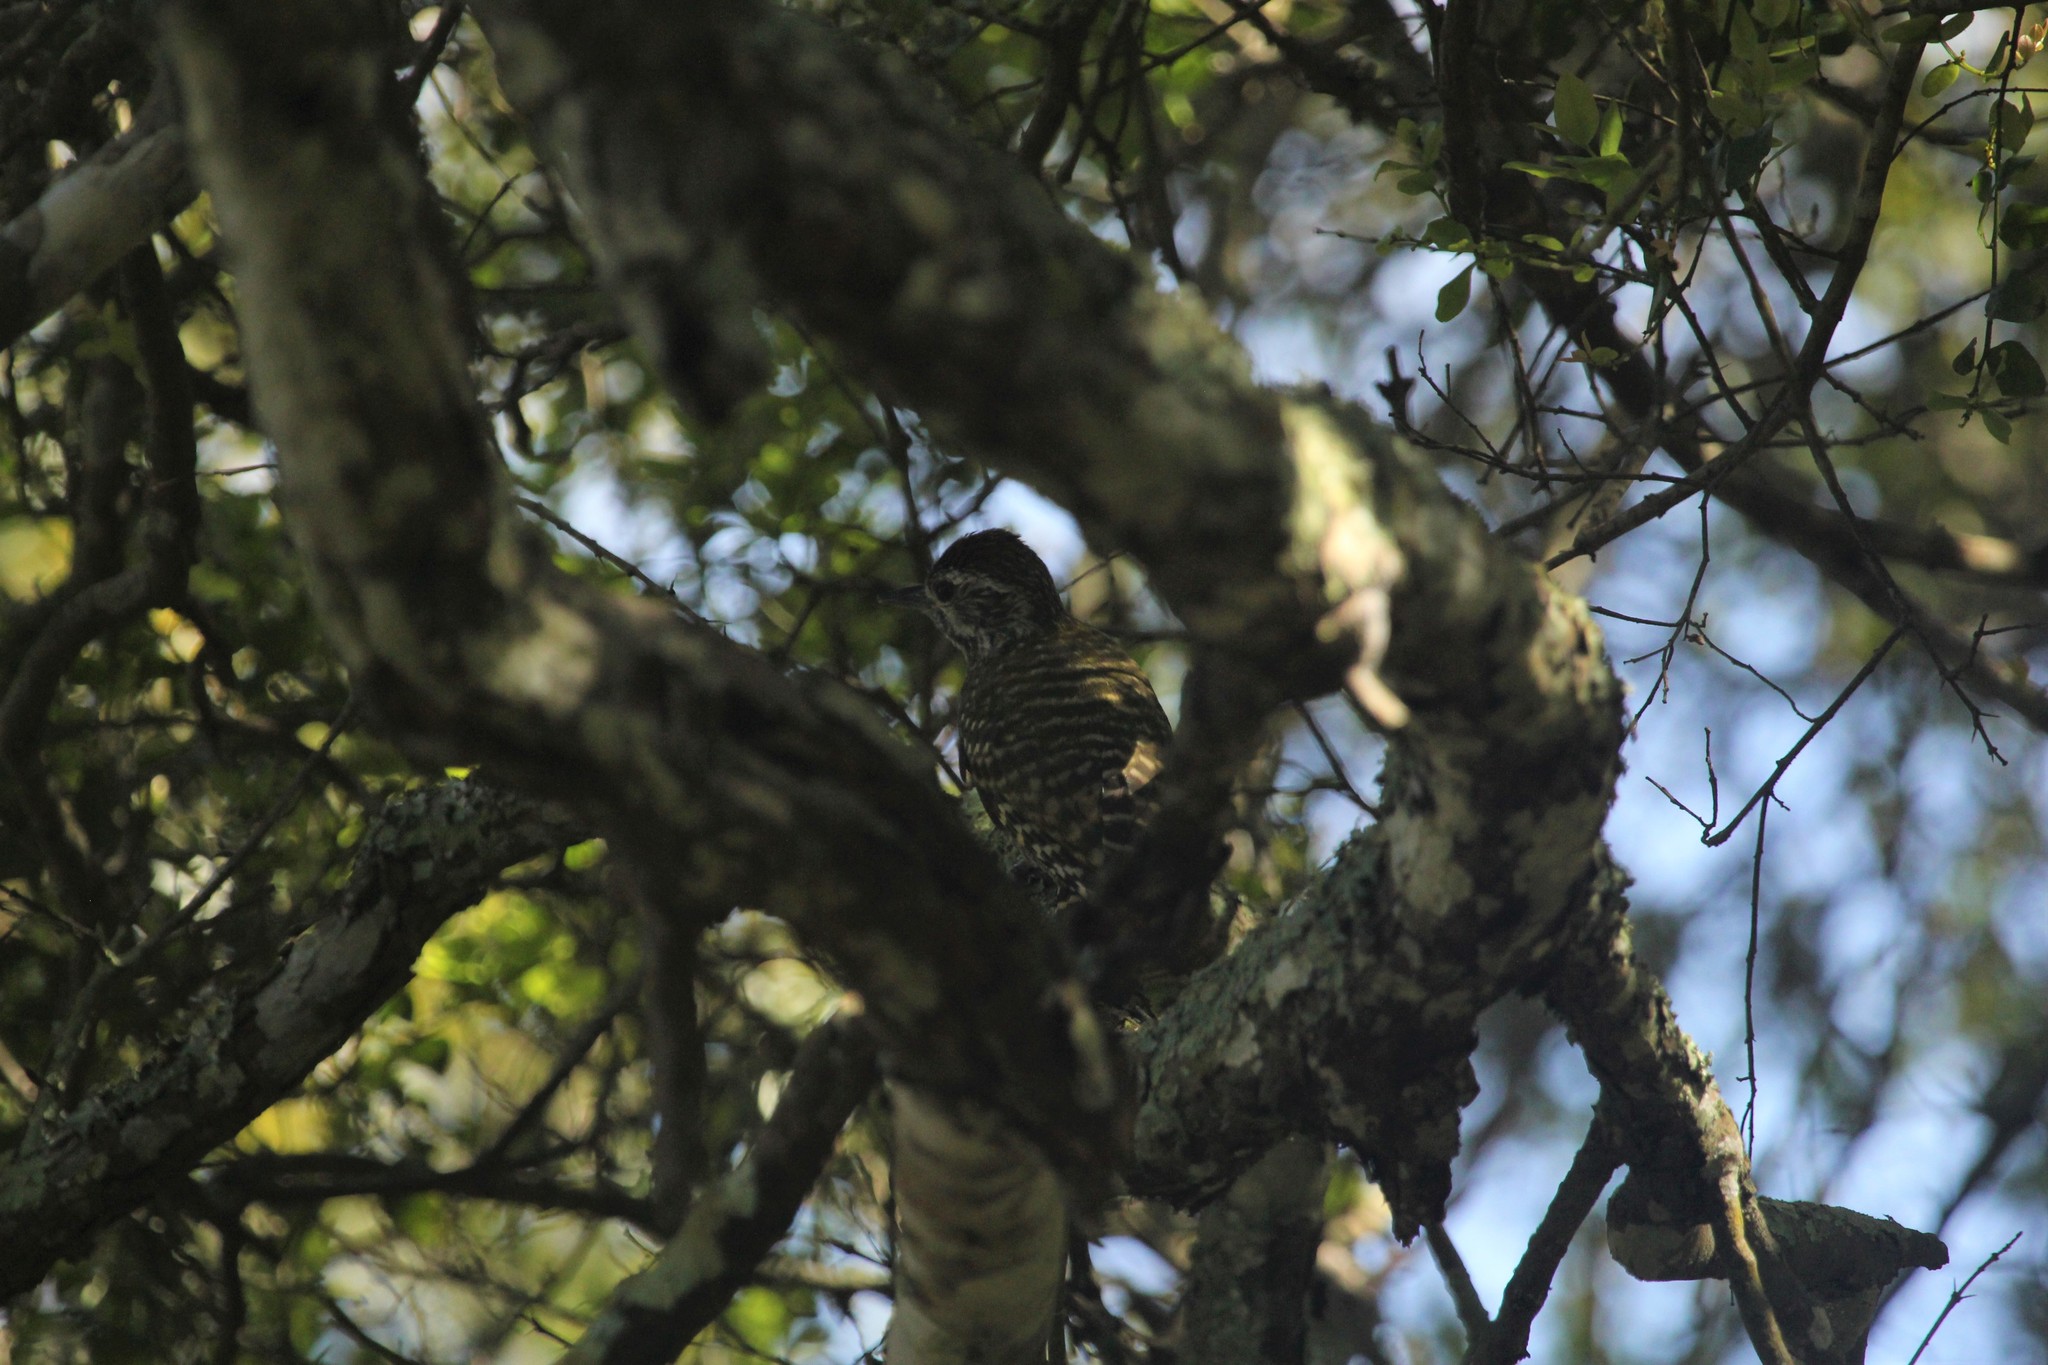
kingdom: Animalia
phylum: Chordata
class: Aves
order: Piciformes
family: Picidae
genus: Veniliornis
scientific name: Veniliornis spilogaster
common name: White-spotted woodpecker
